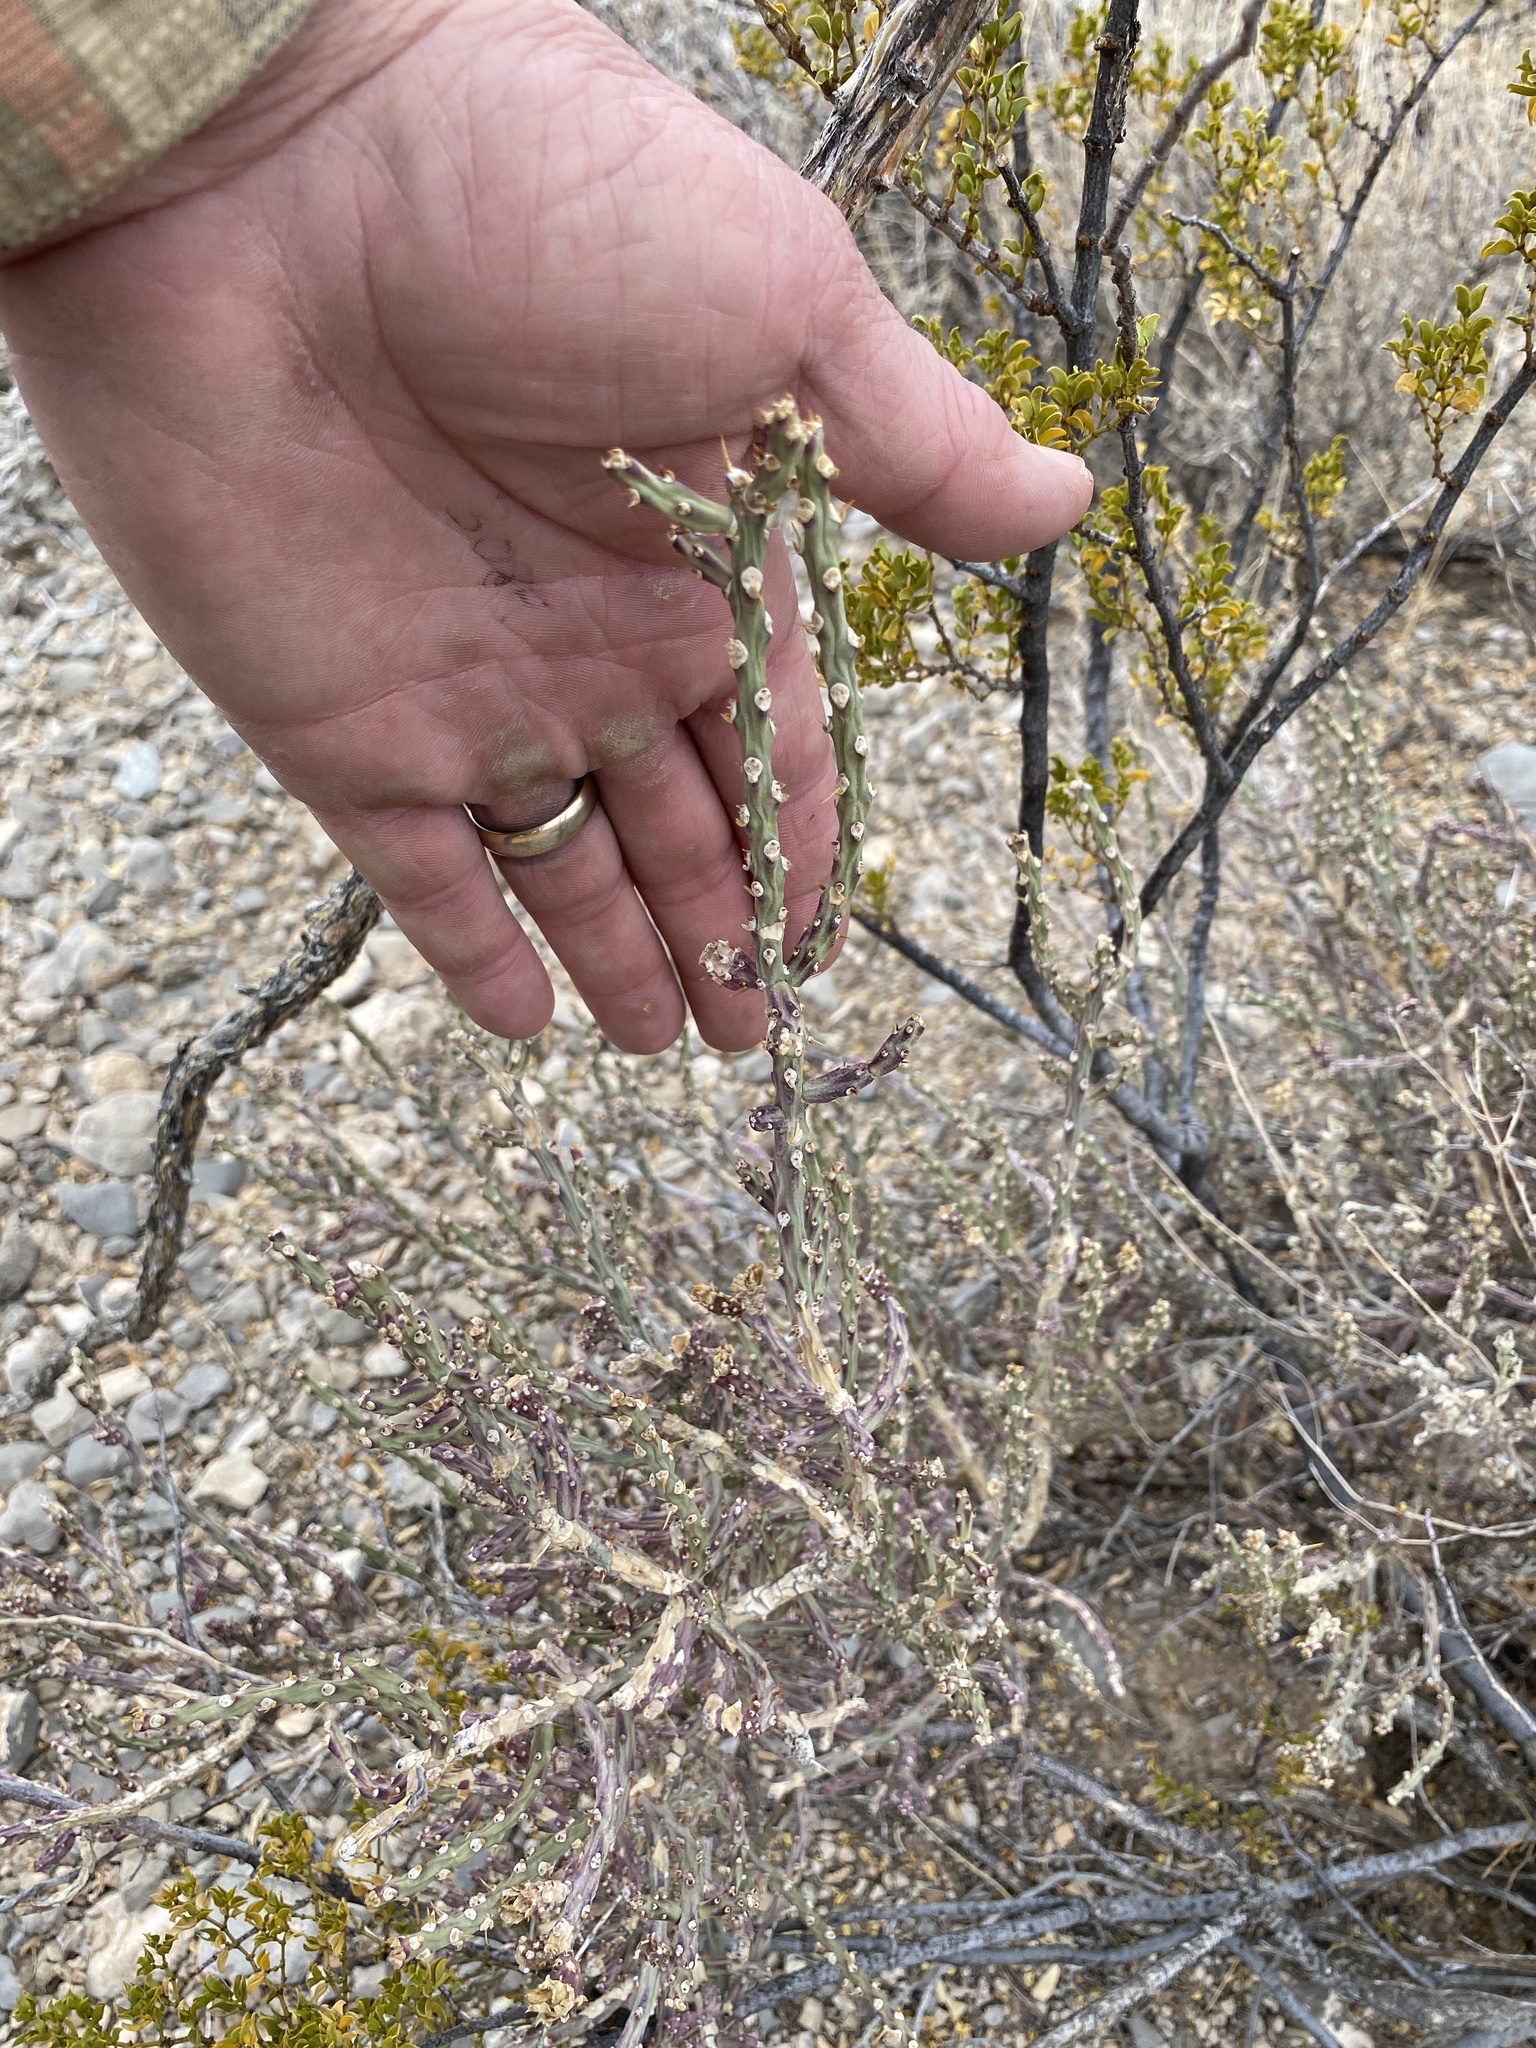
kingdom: Plantae
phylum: Tracheophyta
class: Magnoliopsida
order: Caryophyllales
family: Cactaceae
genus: Cylindropuntia
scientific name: Cylindropuntia leptocaulis
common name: Christmas cactus
